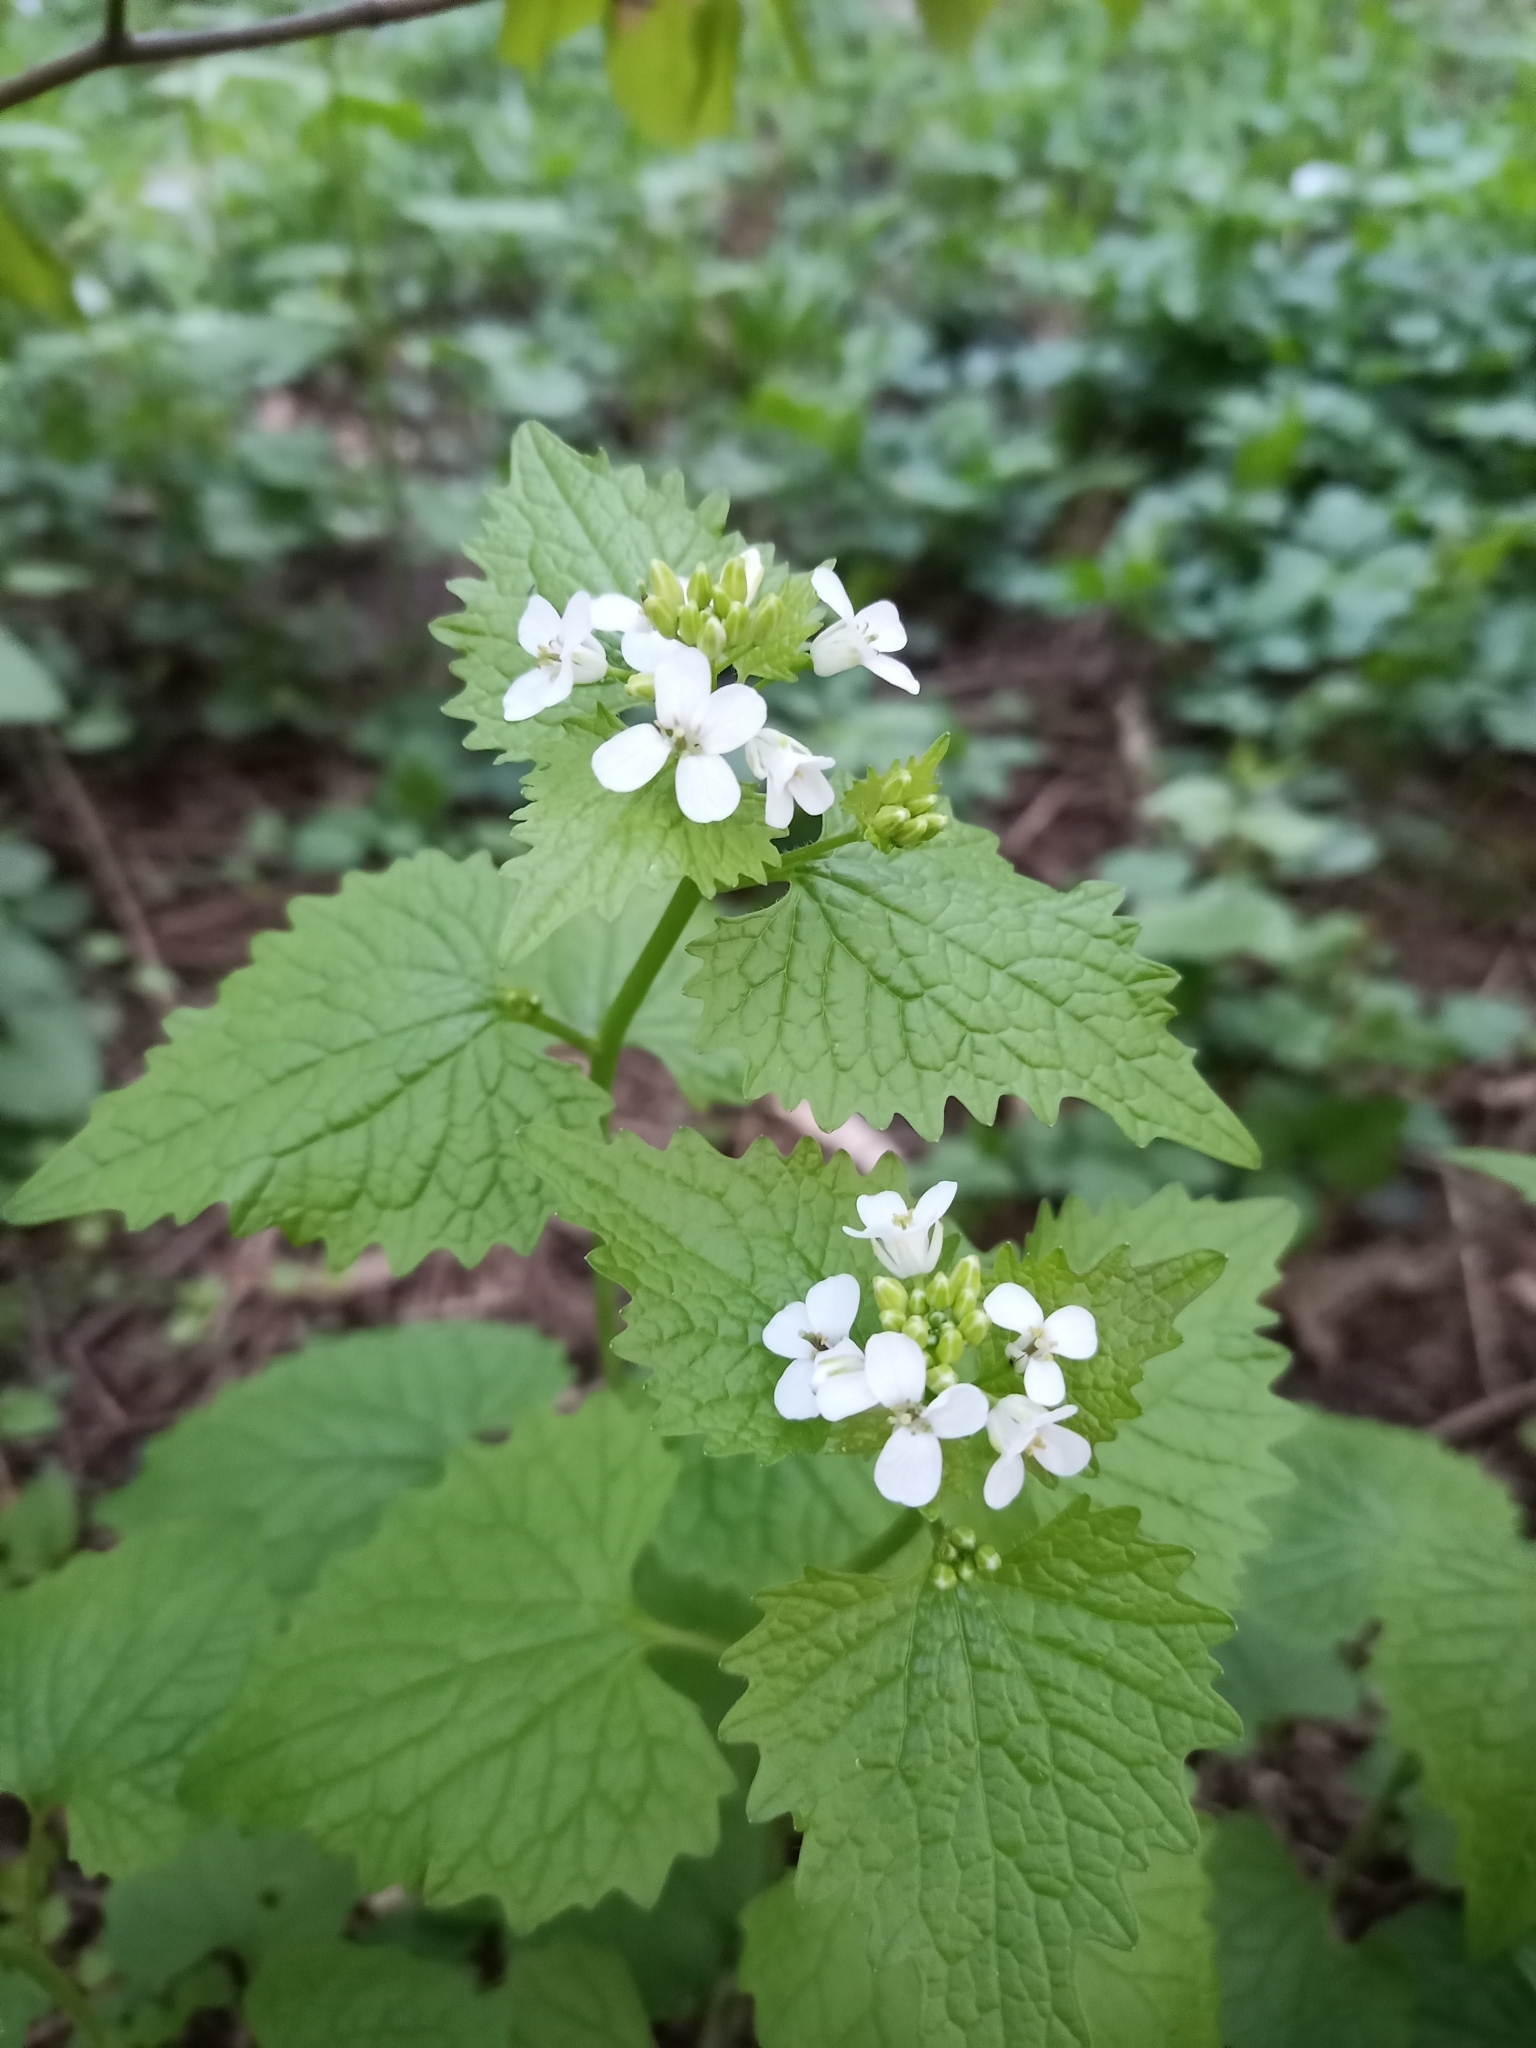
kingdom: Plantae
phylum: Tracheophyta
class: Magnoliopsida
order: Brassicales
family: Brassicaceae
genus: Alliaria
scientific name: Alliaria petiolata
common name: Garlic mustard
